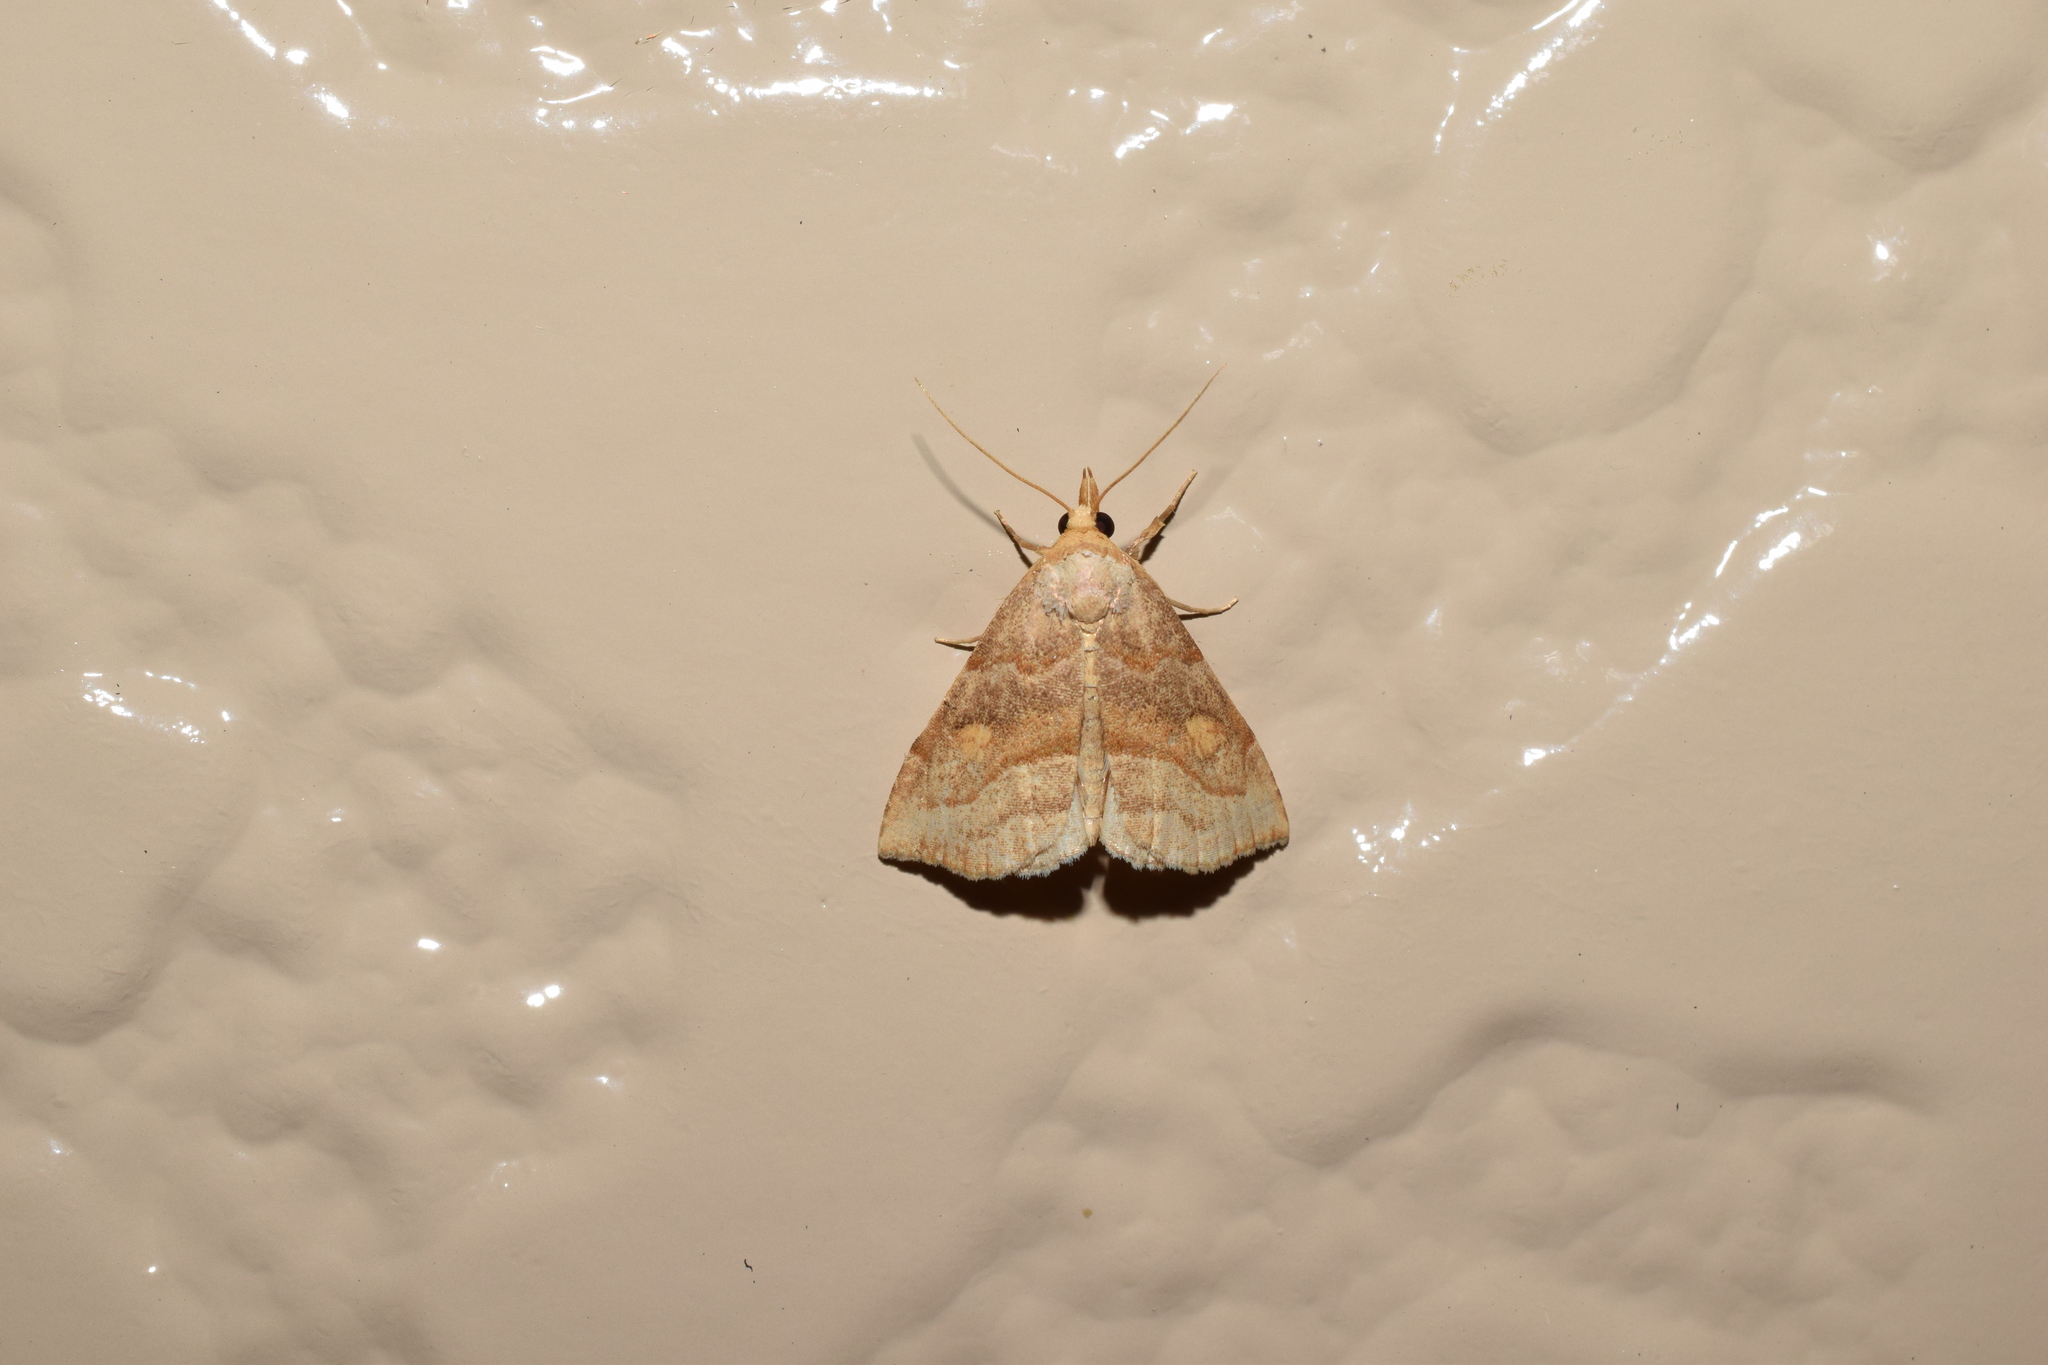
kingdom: Animalia
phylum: Arthropoda
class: Insecta
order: Lepidoptera
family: Erebidae
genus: Paragabara
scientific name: Paragabara ochreipennis
